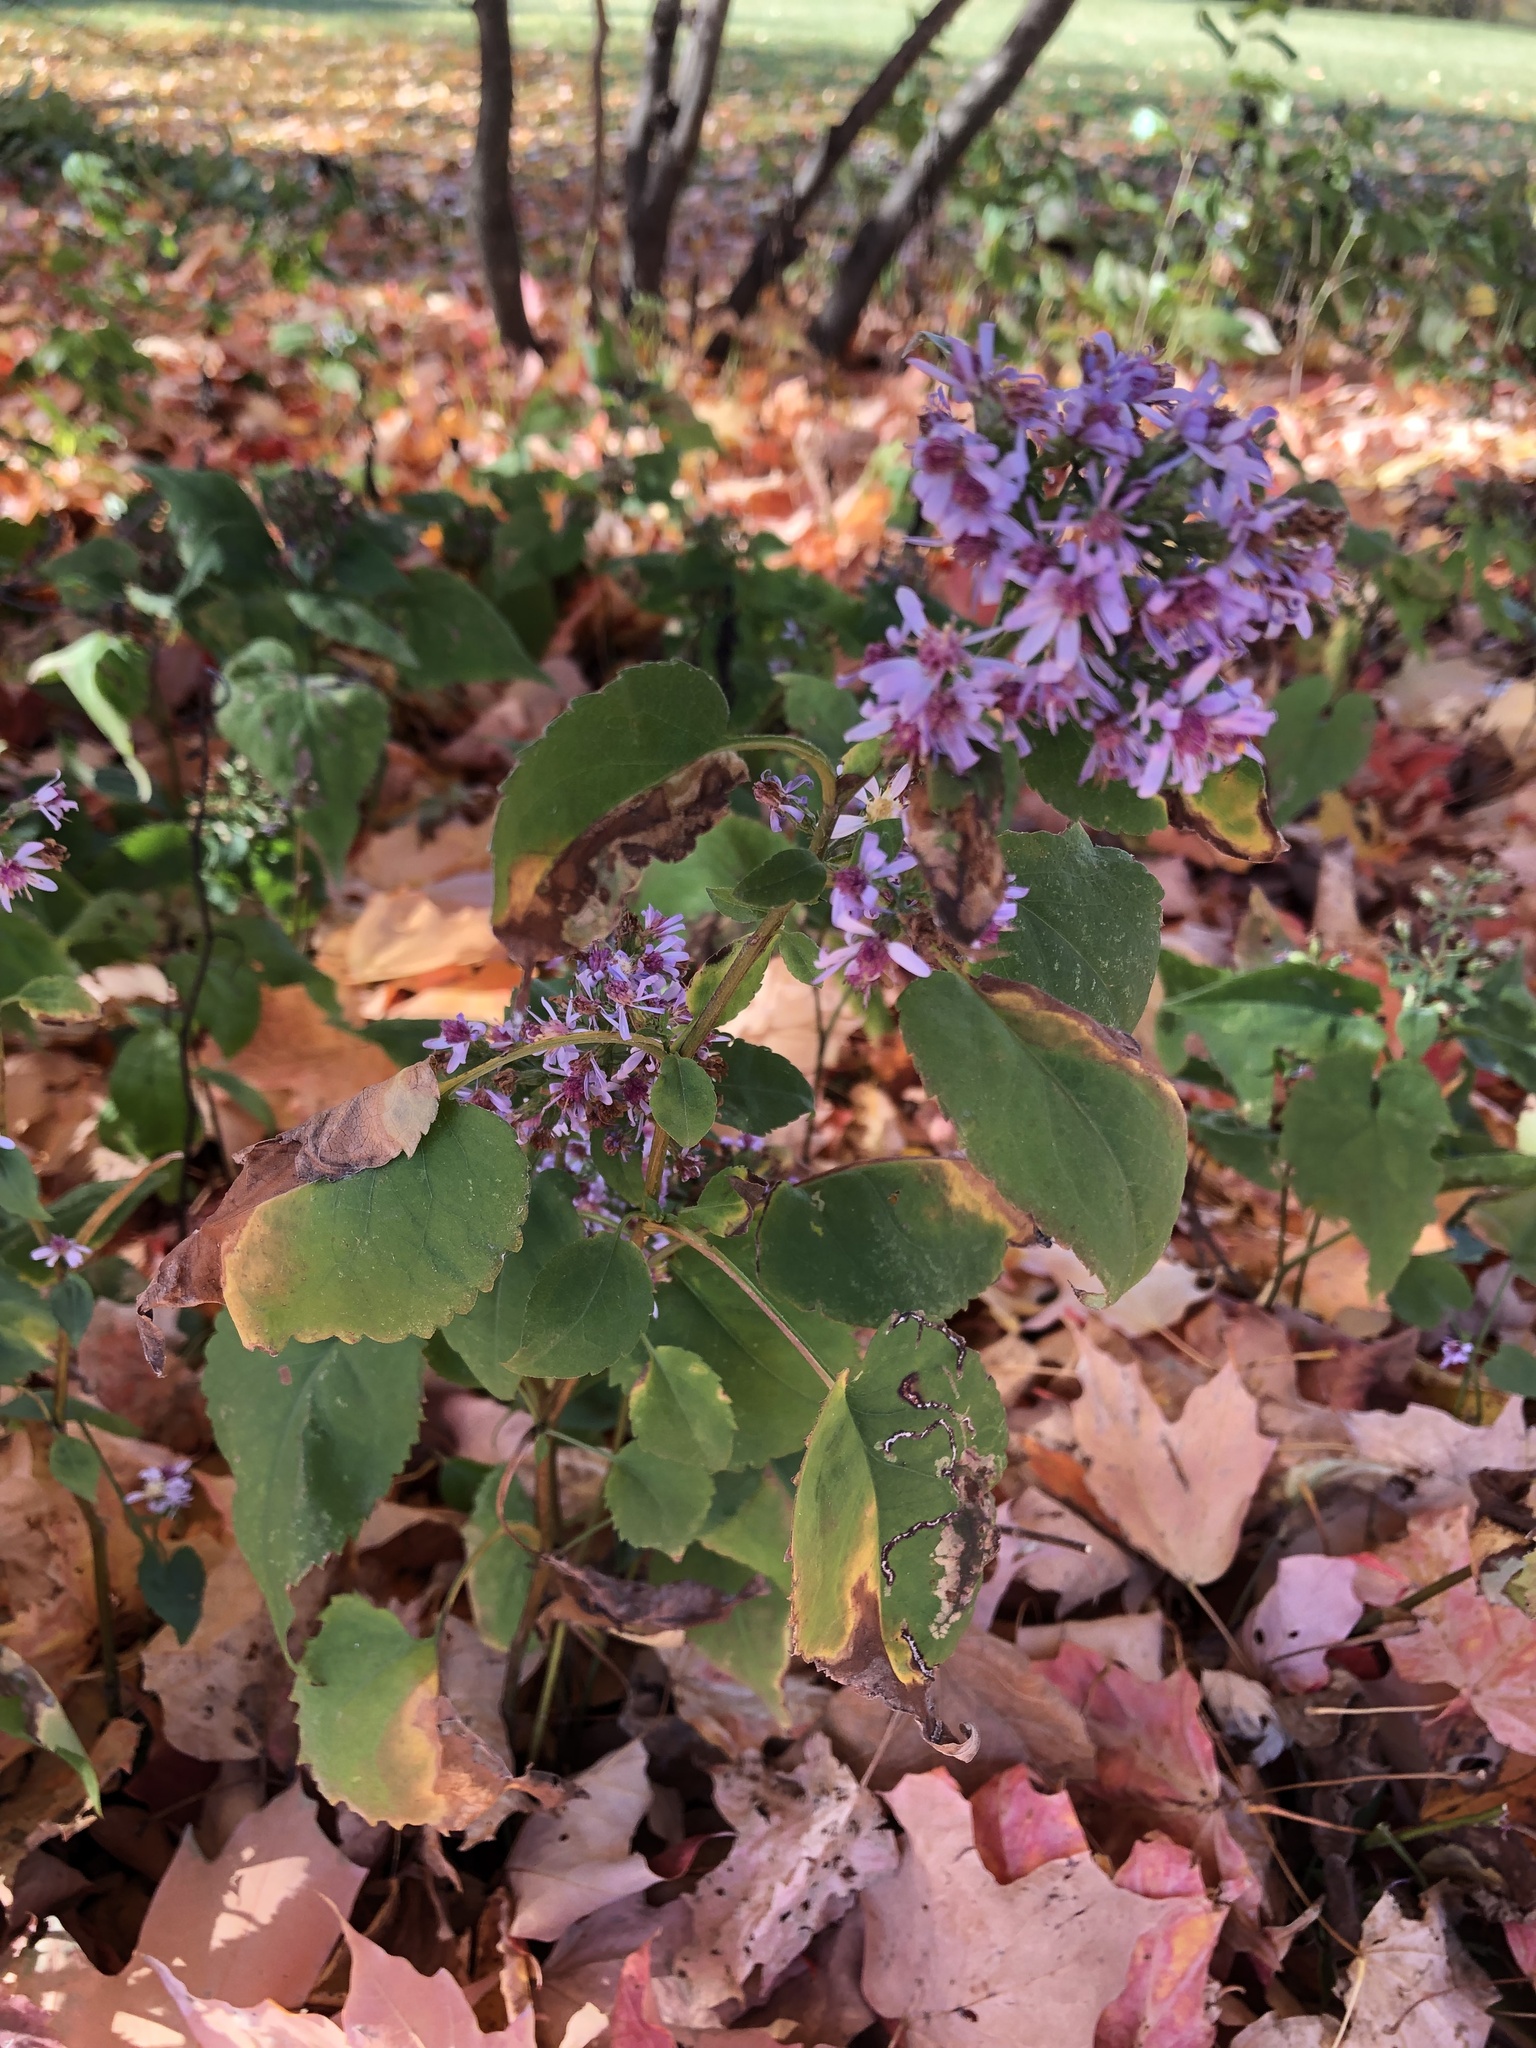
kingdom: Plantae
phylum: Tracheophyta
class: Magnoliopsida
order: Asterales
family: Asteraceae
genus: Symphyotrichum
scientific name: Symphyotrichum cordifolium
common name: Beeweed
